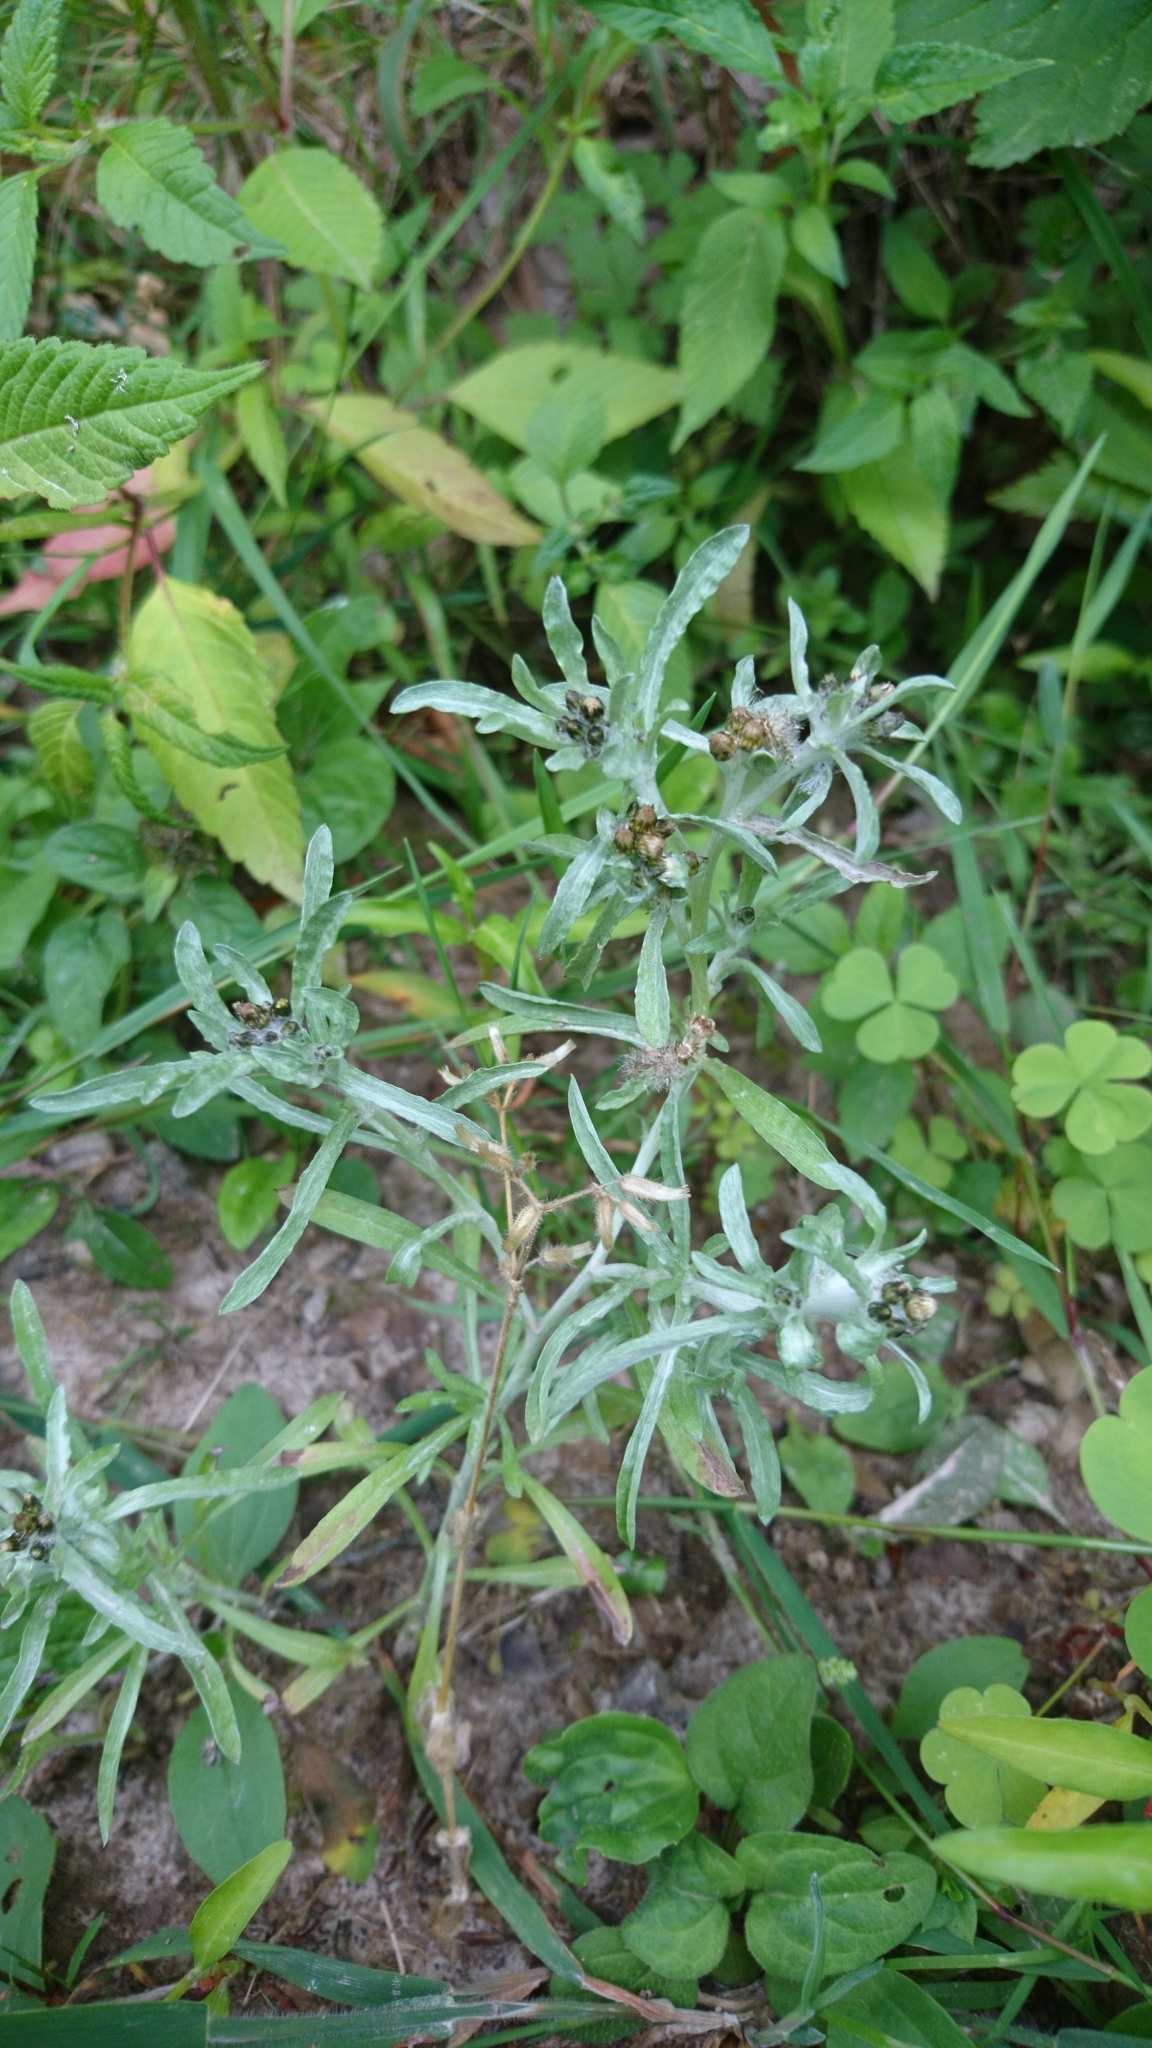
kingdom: Plantae
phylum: Tracheophyta
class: Magnoliopsida
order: Asterales
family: Asteraceae
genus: Gnaphalium
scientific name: Gnaphalium uliginosum
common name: Marsh cudweed
